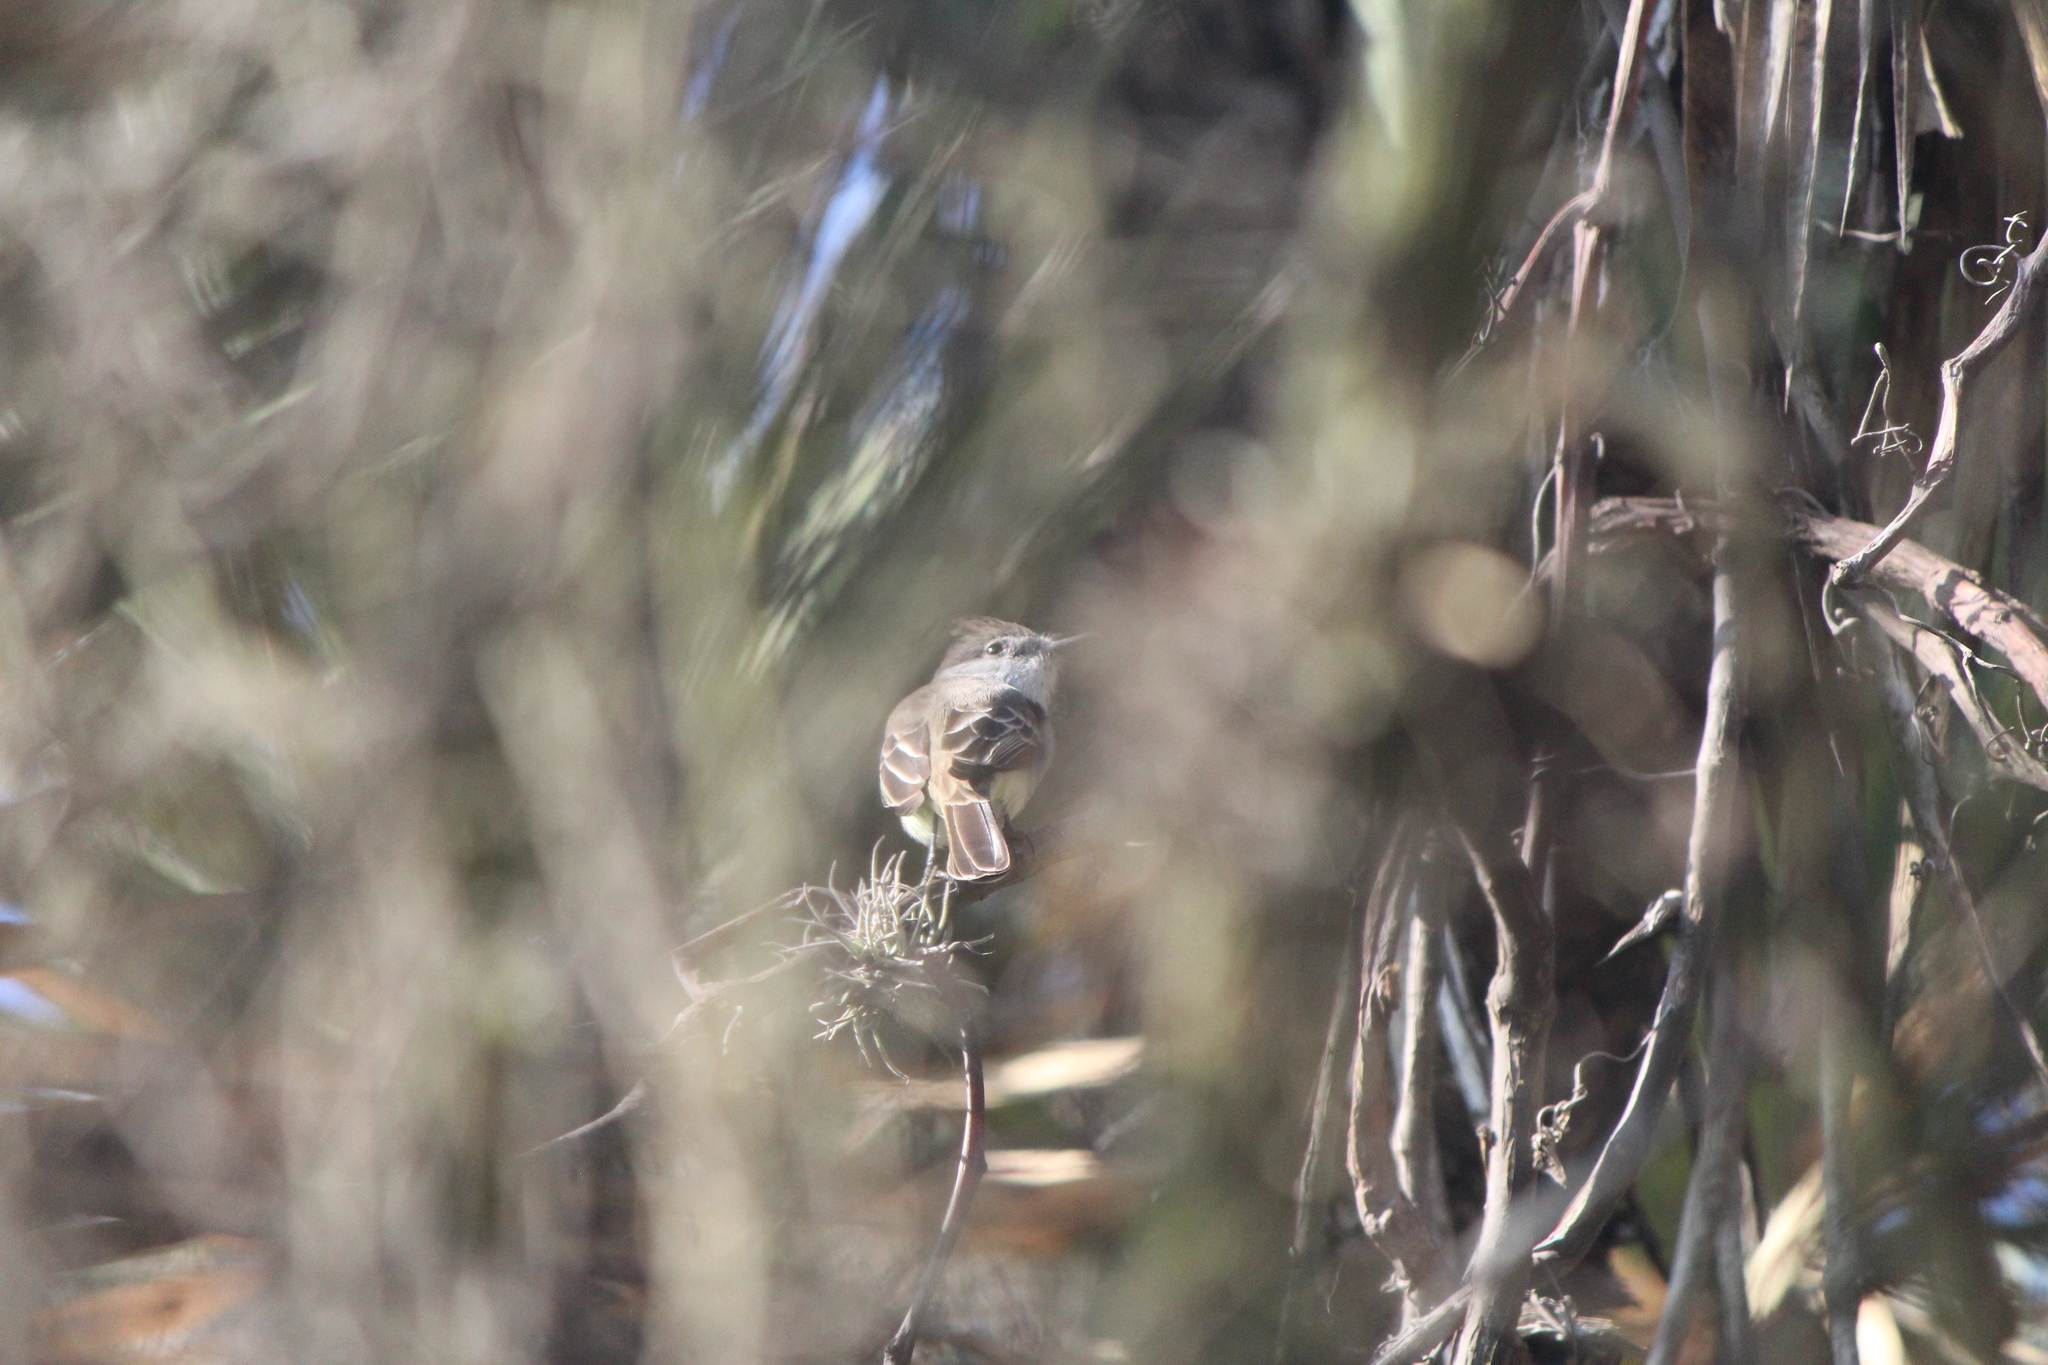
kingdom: Animalia
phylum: Chordata
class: Aves
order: Passeriformes
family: Tyrannidae
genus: Myiarchus
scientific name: Myiarchus cinerascens
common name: Ash-throated flycatcher
